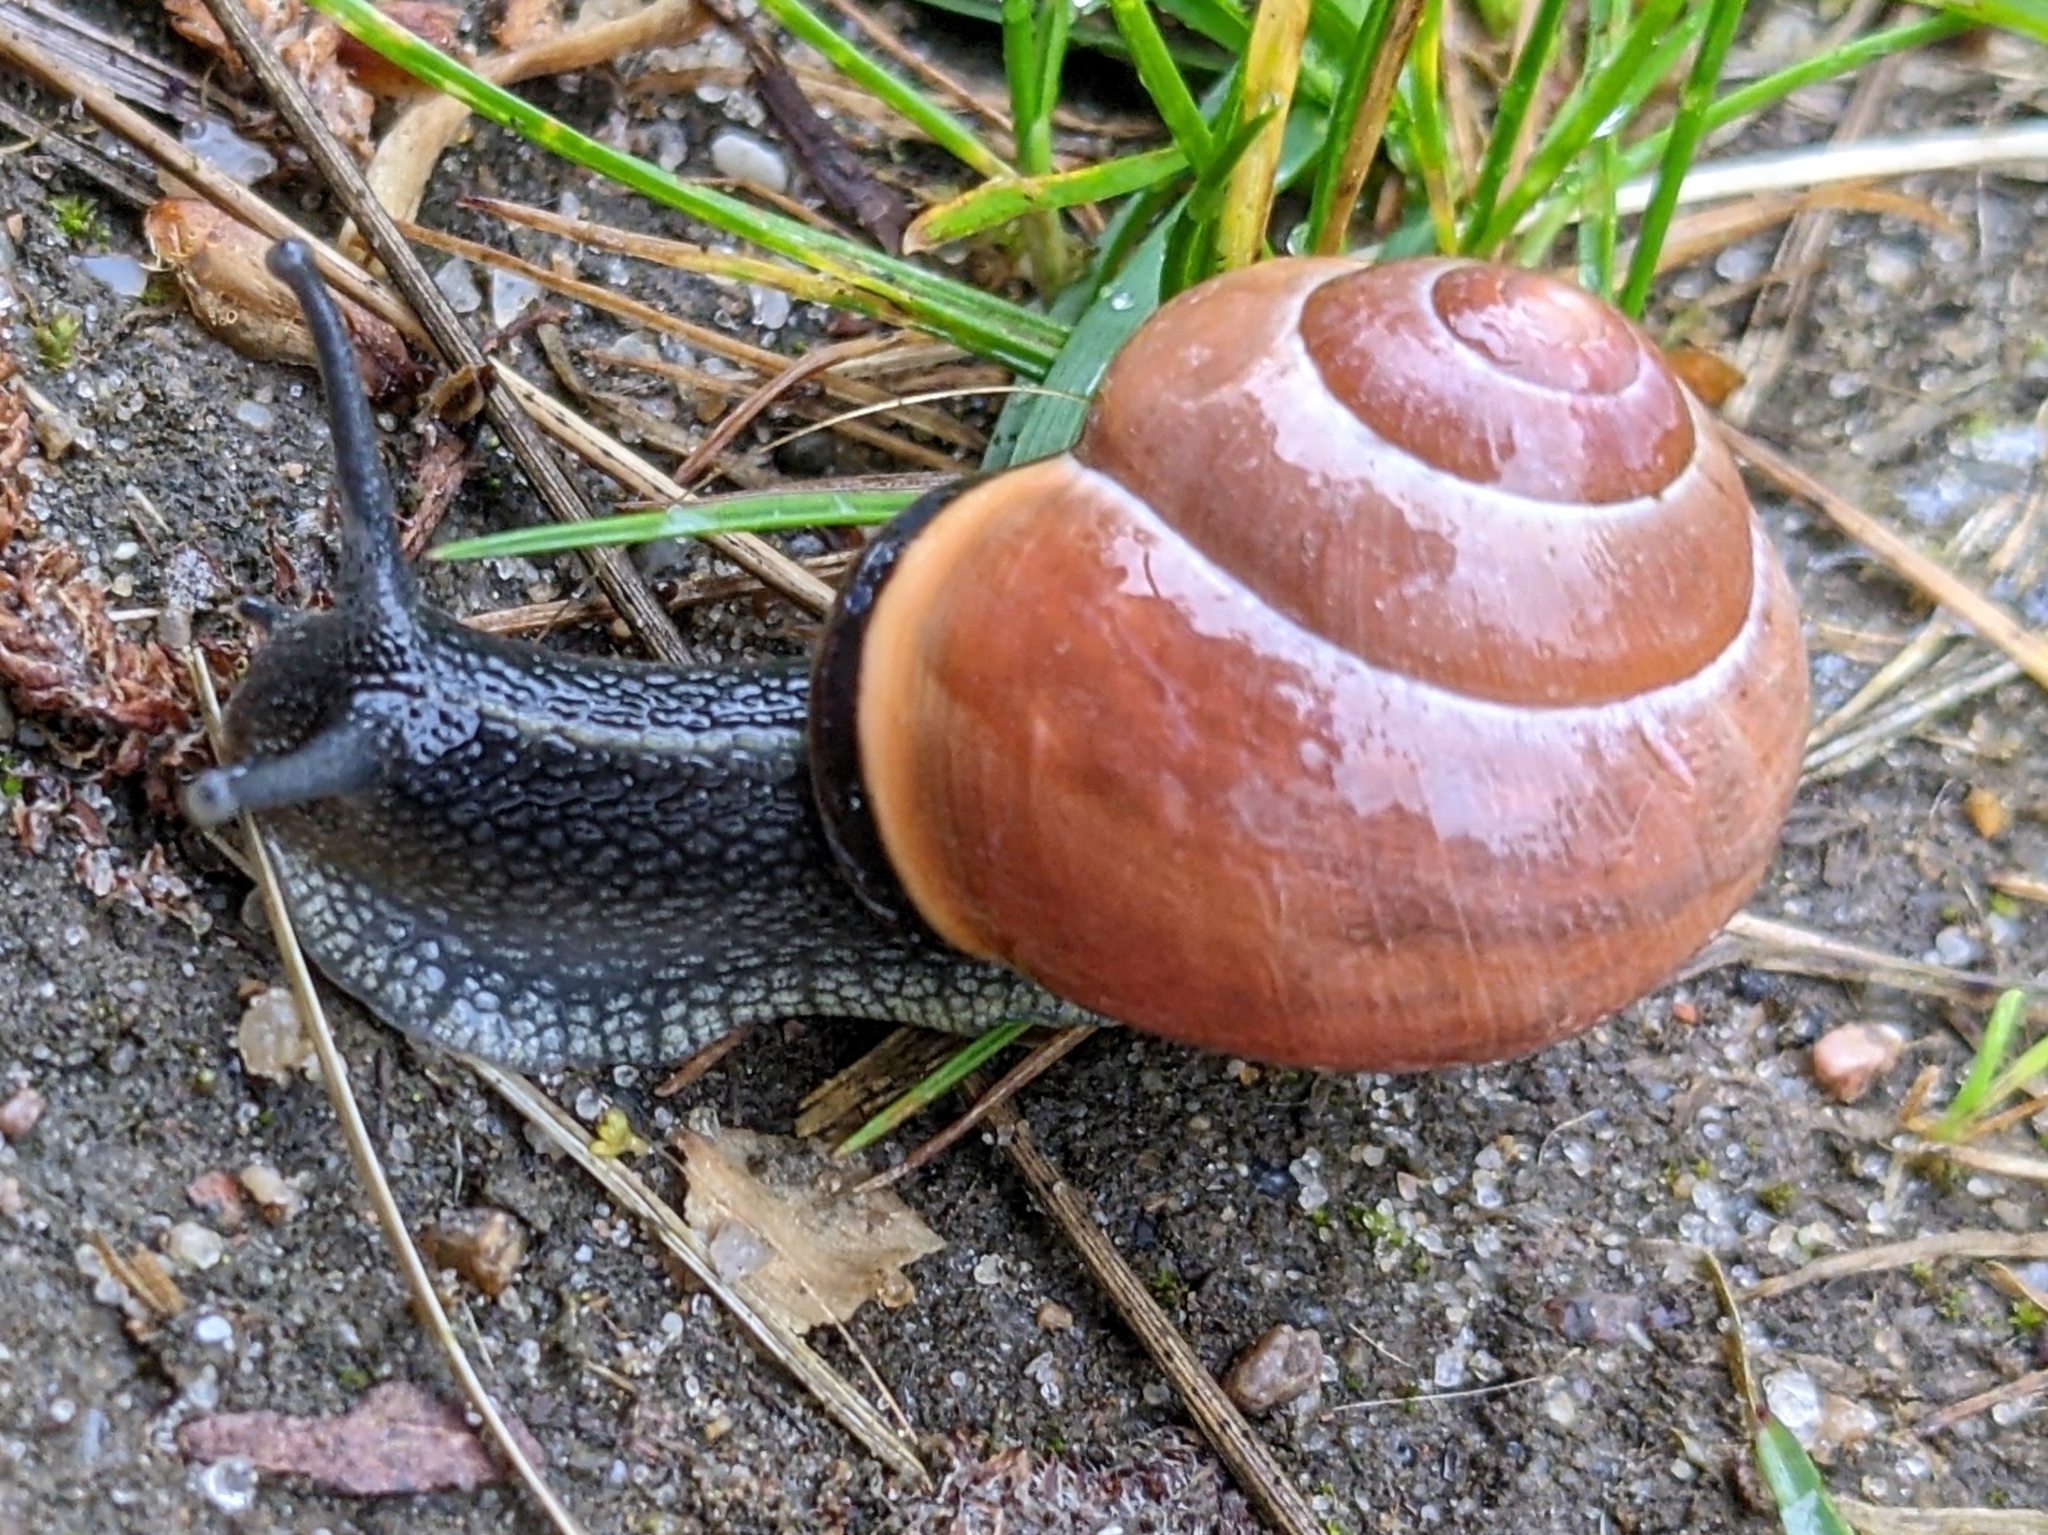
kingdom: Animalia
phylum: Mollusca
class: Gastropoda
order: Stylommatophora
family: Helicidae
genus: Cepaea
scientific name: Cepaea nemoralis
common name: Grovesnail
